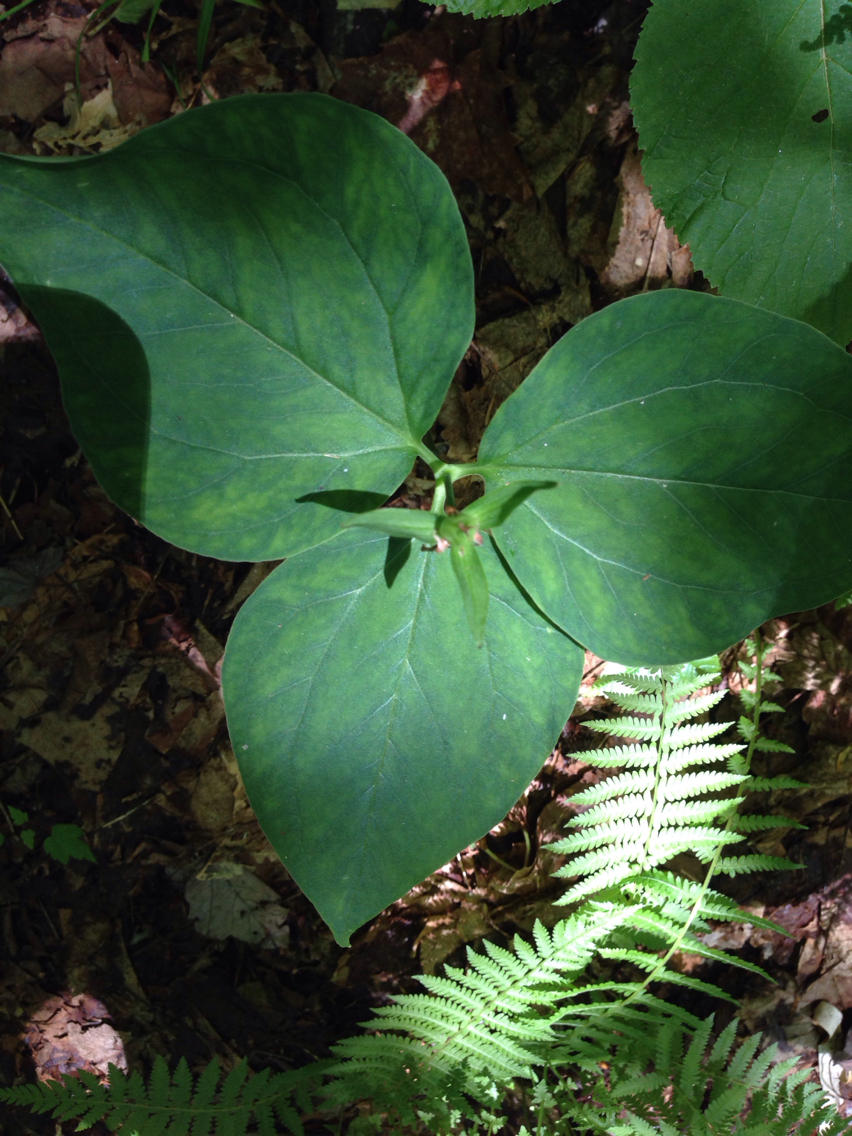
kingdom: Plantae
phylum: Tracheophyta
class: Liliopsida
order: Liliales
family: Melanthiaceae
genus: Trillium
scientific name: Trillium undulatum
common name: Paint trillium
